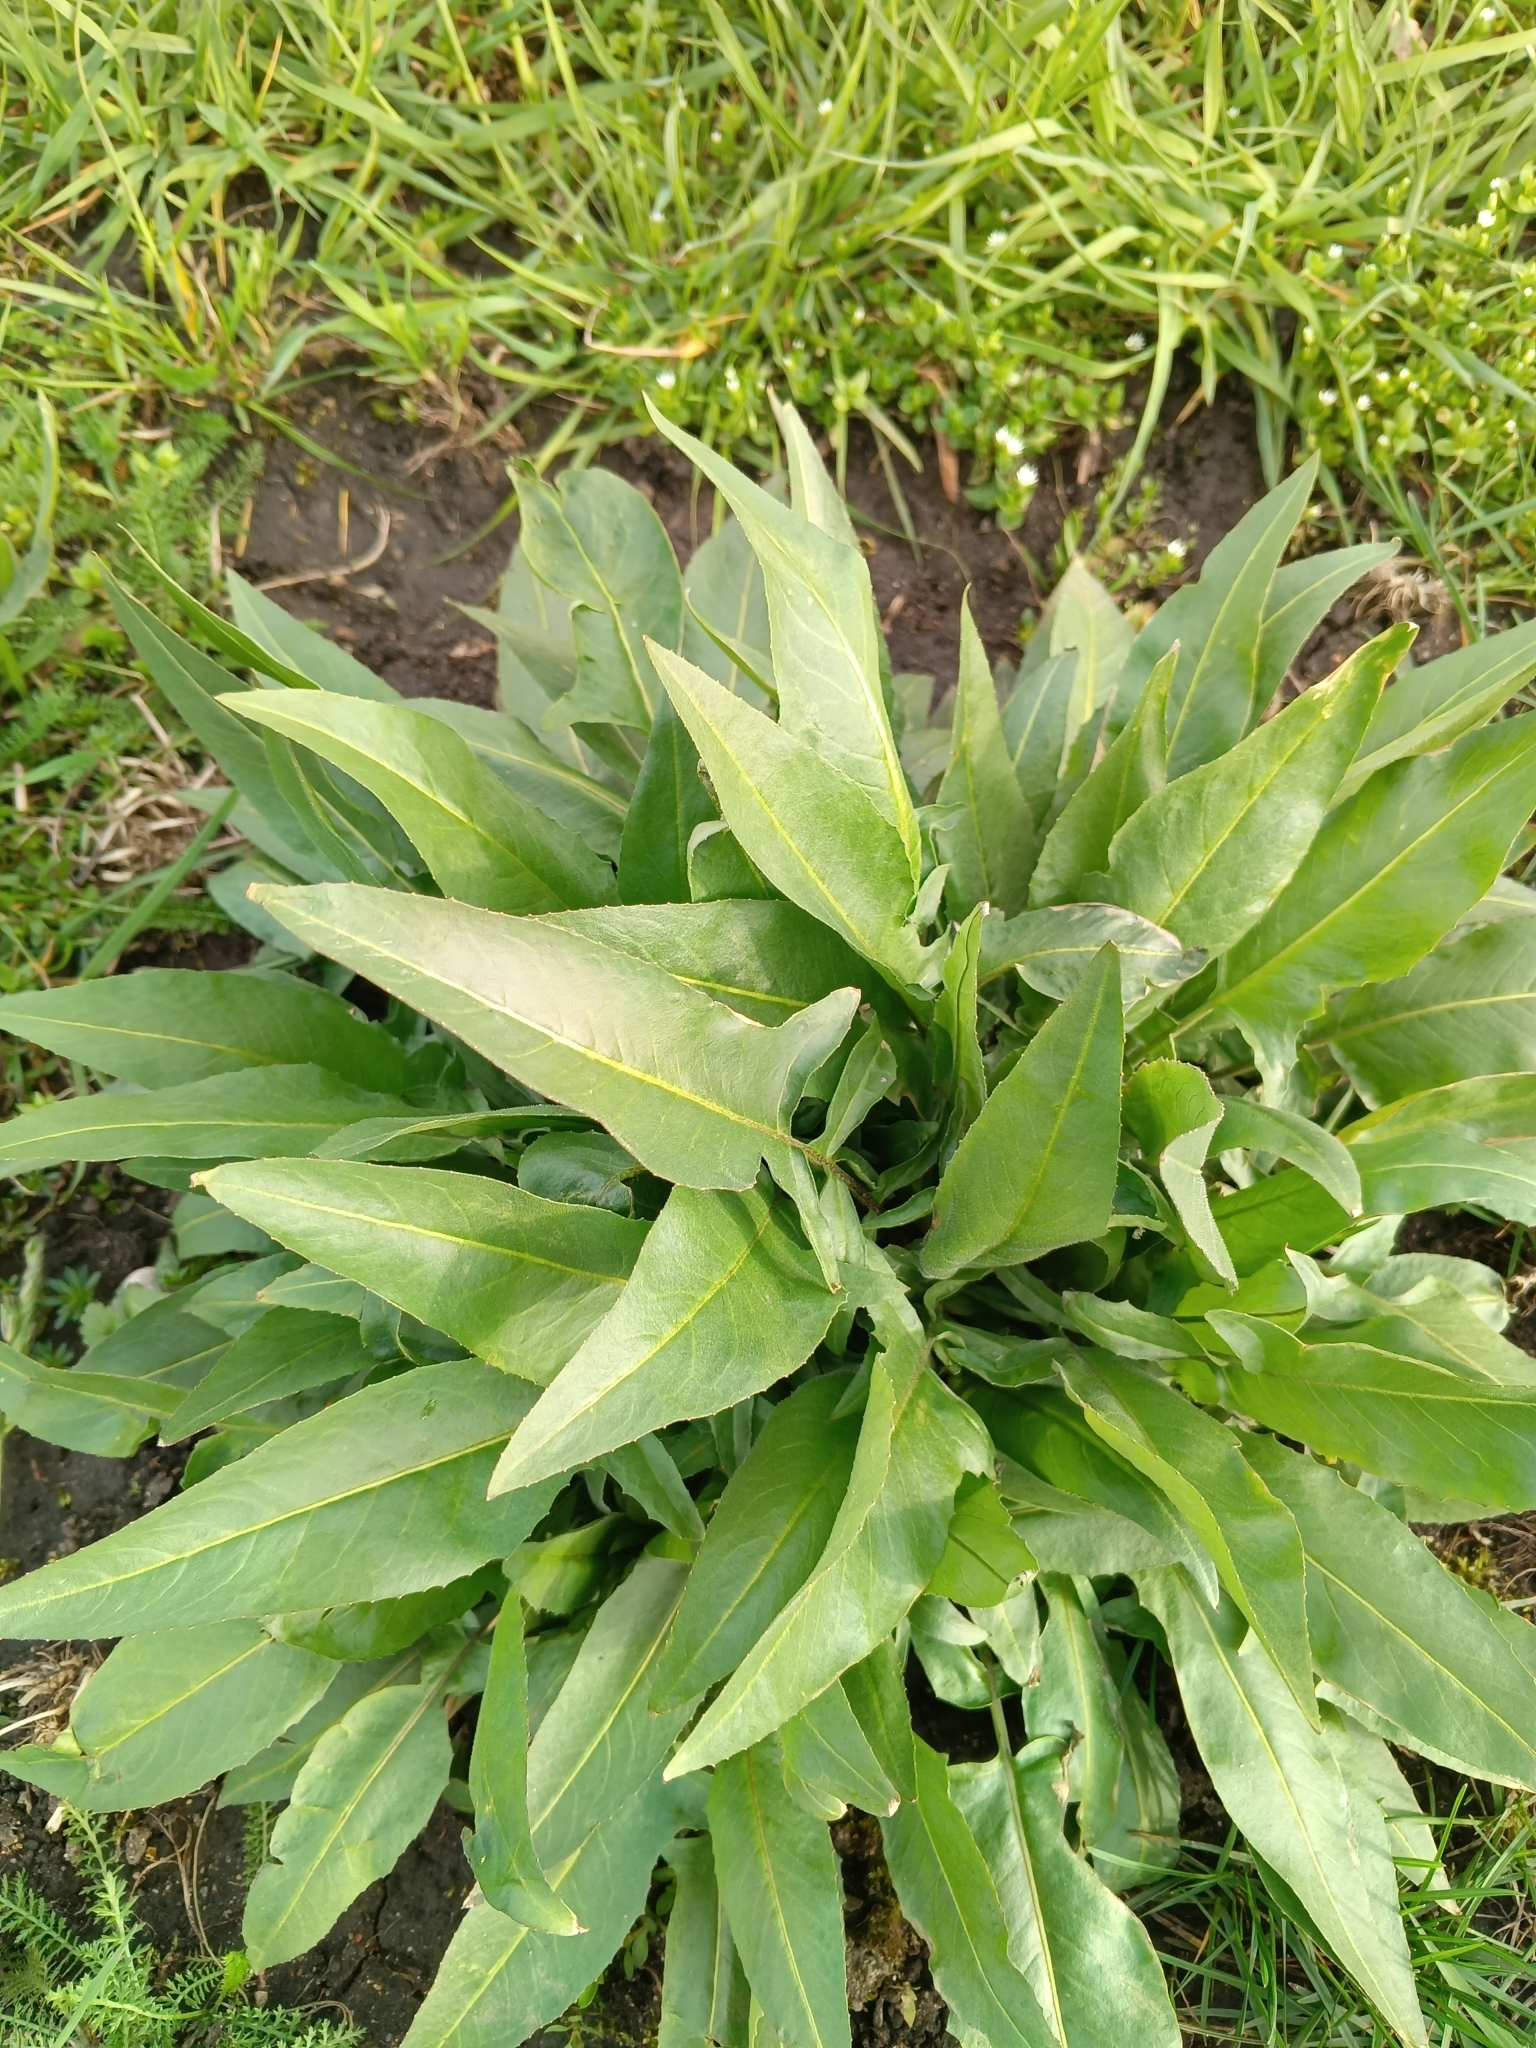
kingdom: Plantae
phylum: Tracheophyta
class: Magnoliopsida
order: Brassicales
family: Brassicaceae
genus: Bunias
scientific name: Bunias orientalis
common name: Warty-cabbage
